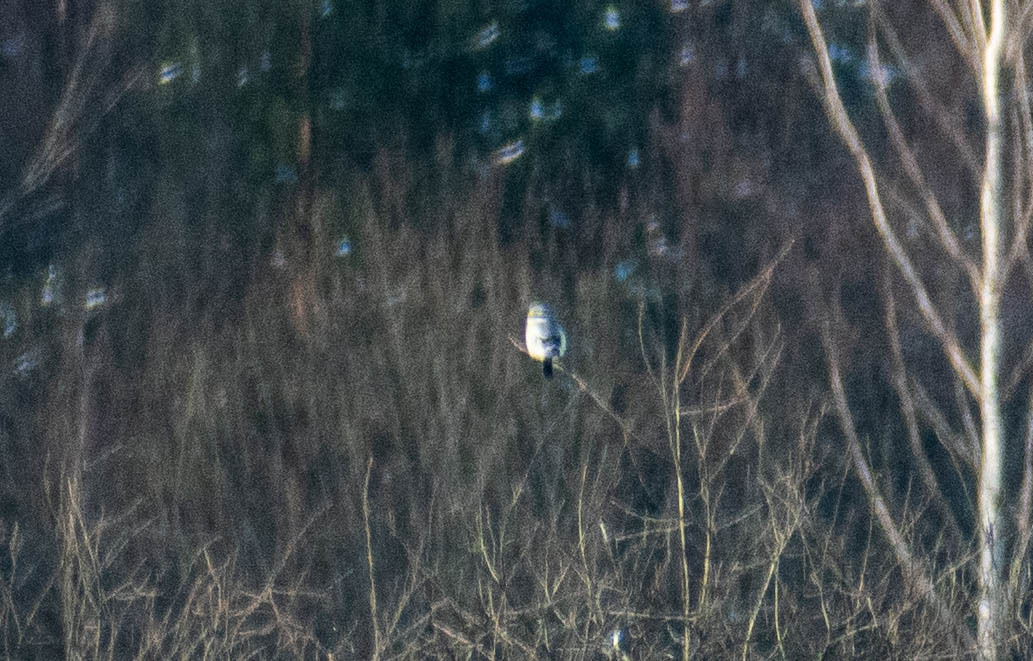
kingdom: Animalia
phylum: Chordata
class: Aves
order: Passeriformes
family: Laniidae
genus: Lanius
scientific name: Lanius excubitor
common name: Great grey shrike
